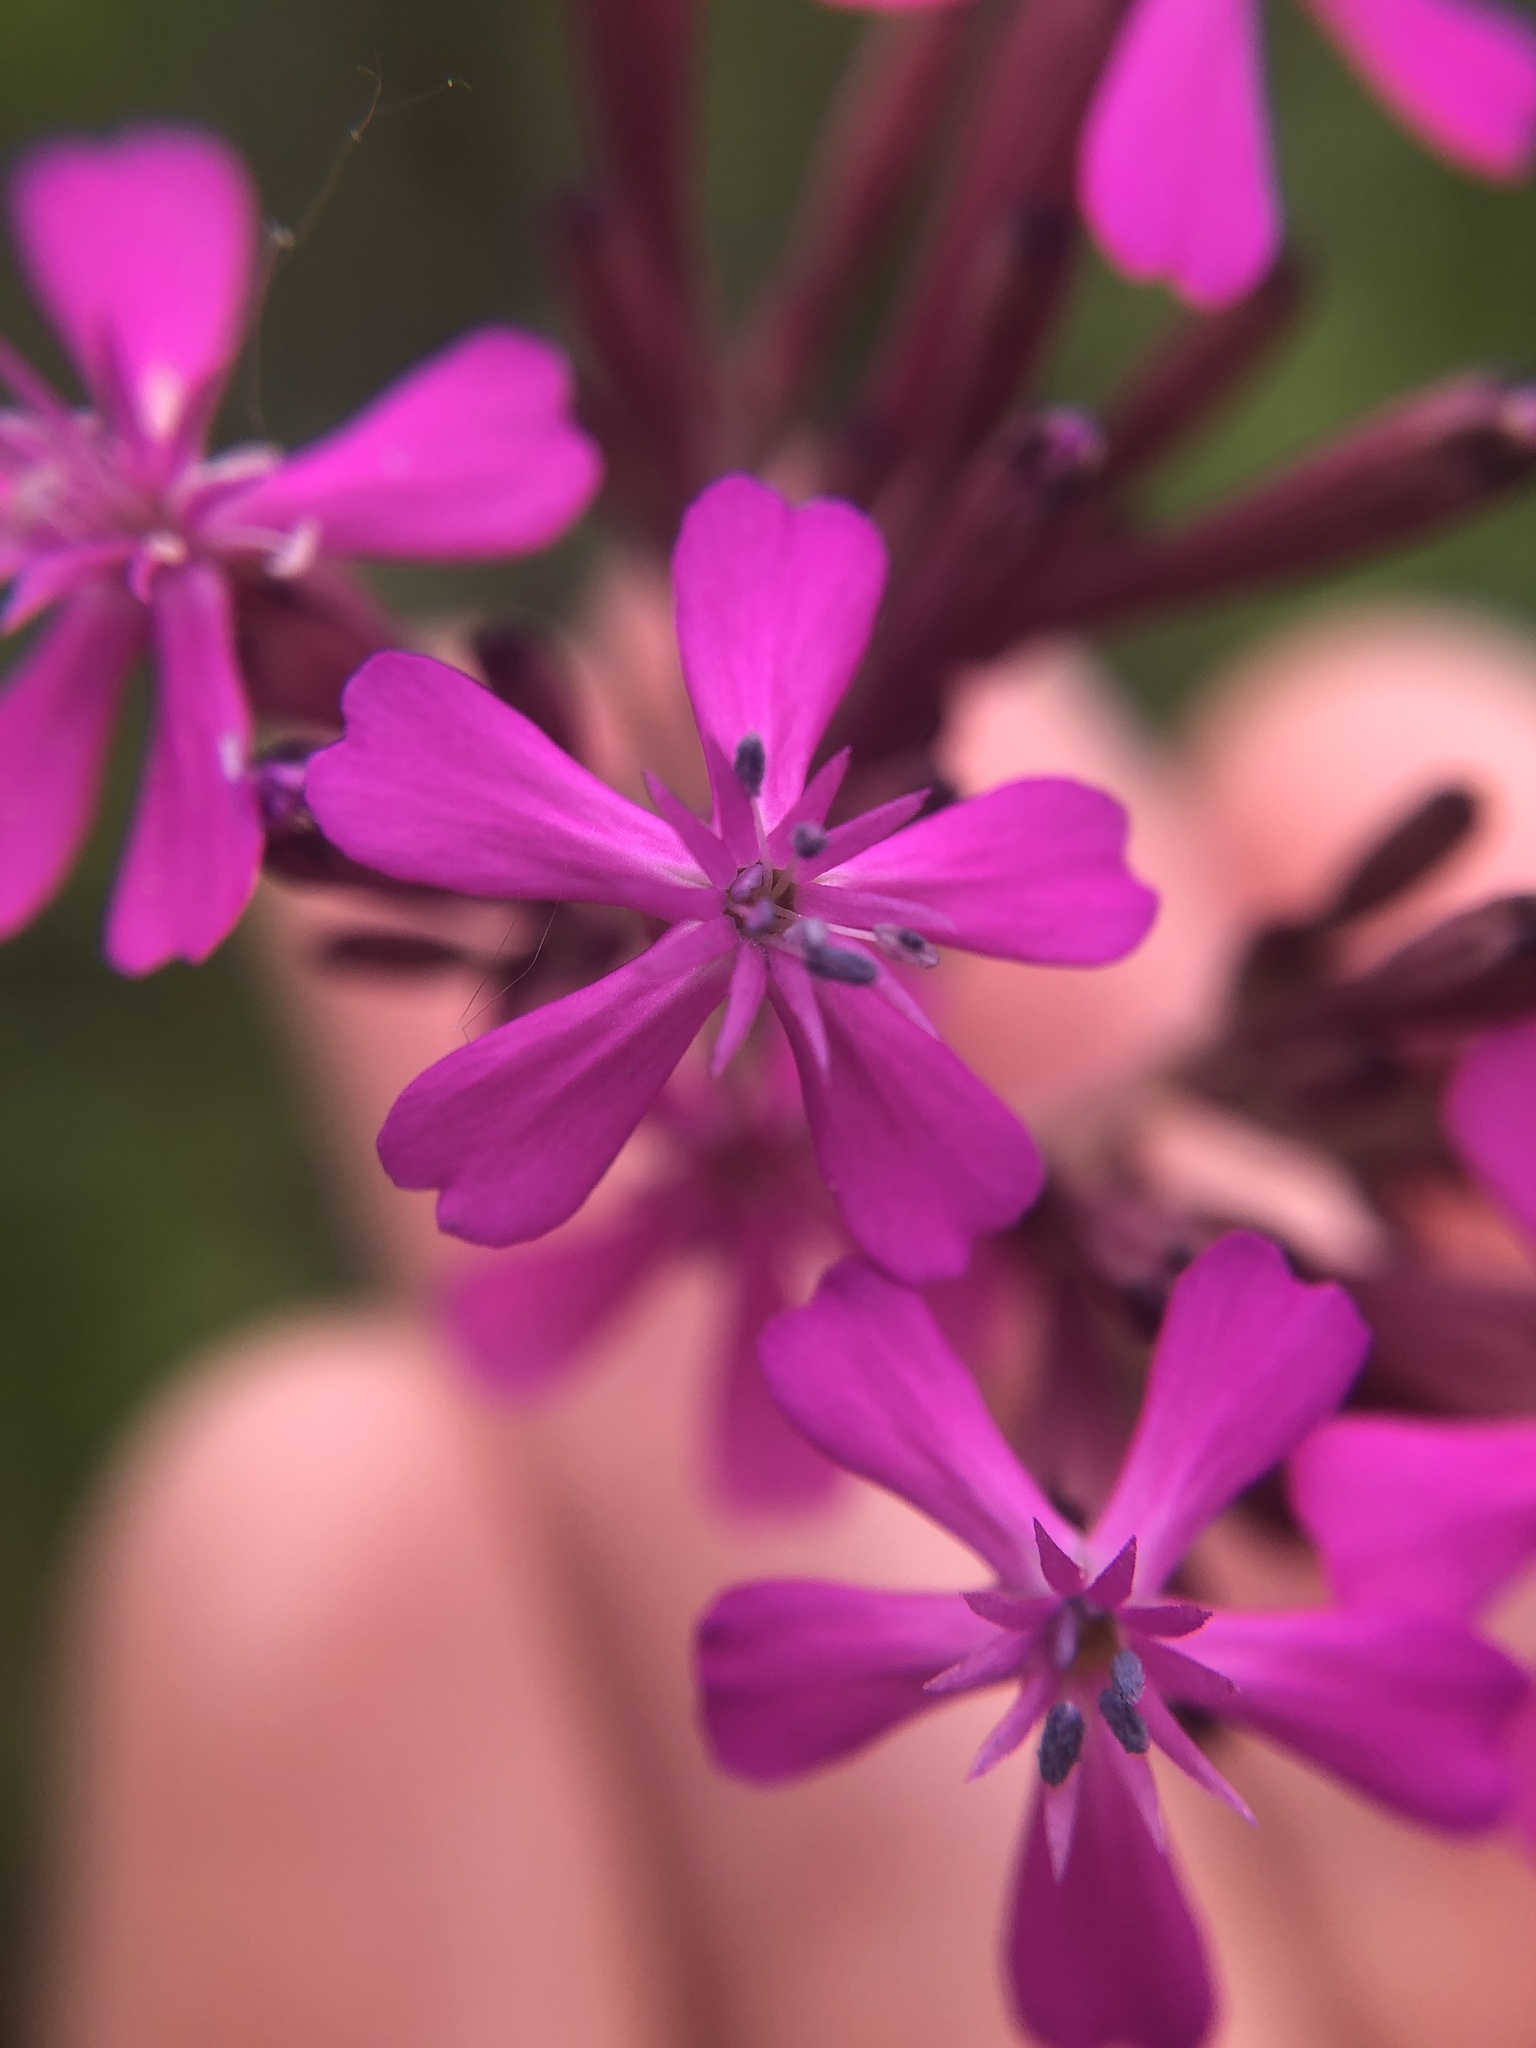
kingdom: Plantae
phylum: Tracheophyta
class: Magnoliopsida
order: Caryophyllales
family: Caryophyllaceae
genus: Atocion
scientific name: Atocion armeria
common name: Sweet william catchfly
